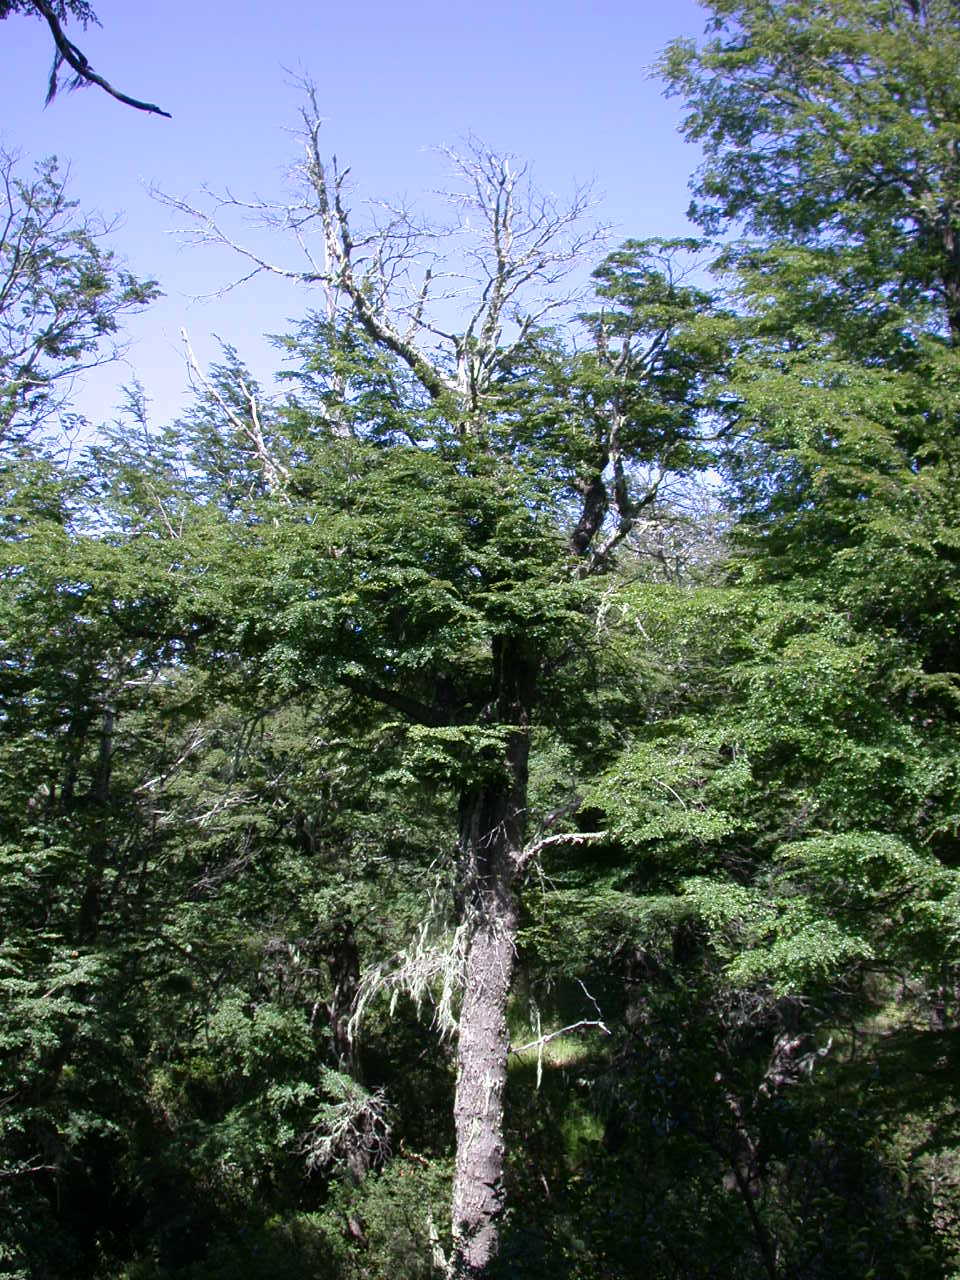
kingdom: Plantae
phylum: Tracheophyta
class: Magnoliopsida
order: Fagales
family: Nothofagaceae
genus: Nothofagus
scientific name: Nothofagus pumilio
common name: Lenga beech
